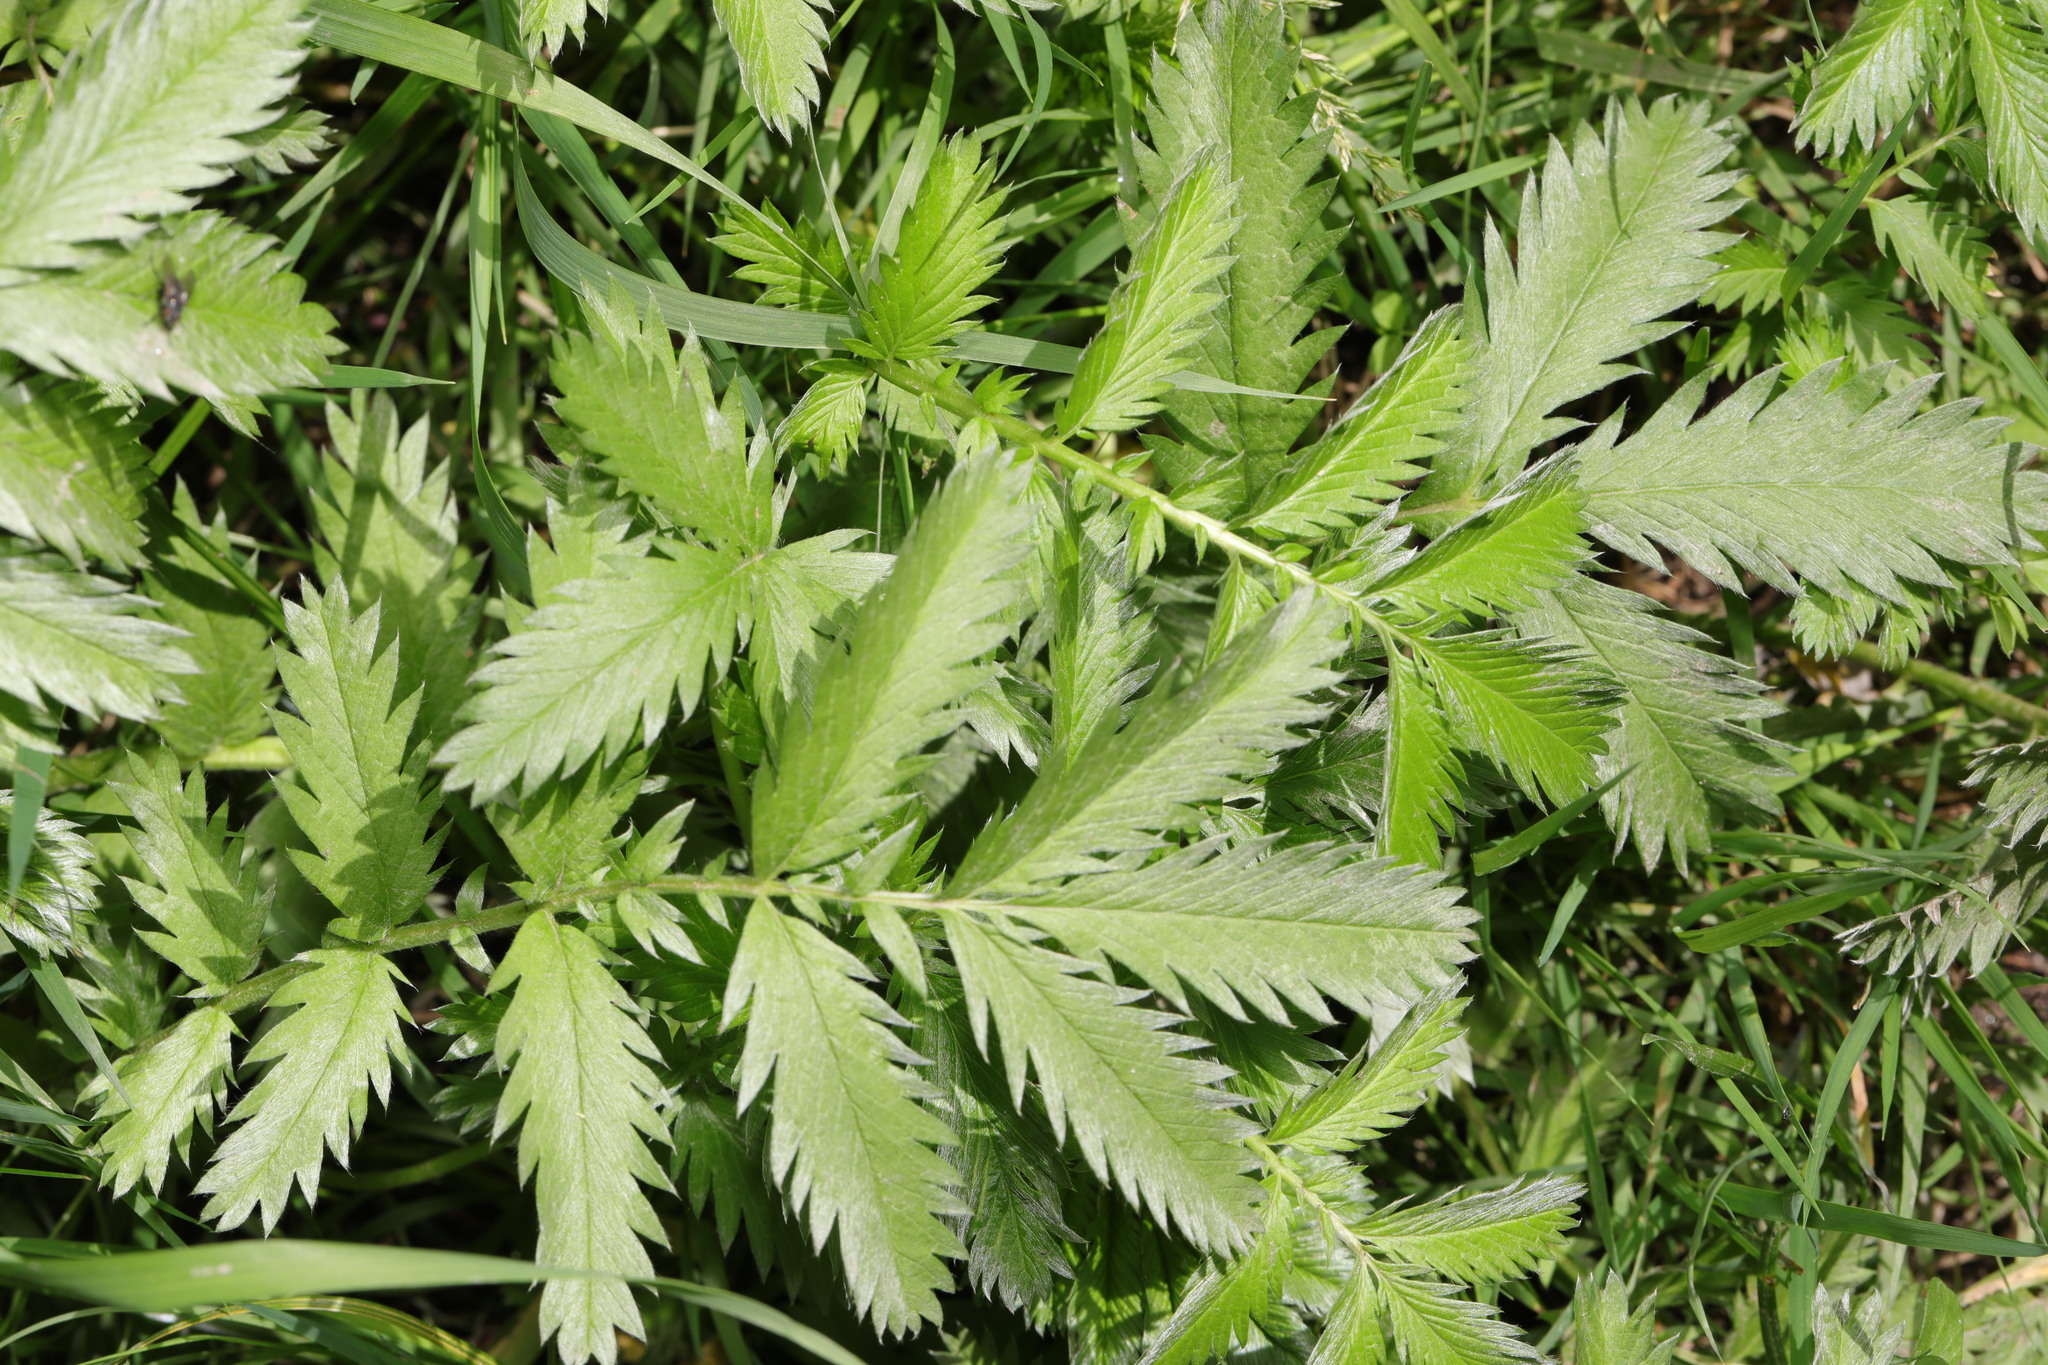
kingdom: Plantae
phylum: Tracheophyta
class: Magnoliopsida
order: Rosales
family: Rosaceae
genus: Argentina
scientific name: Argentina anserina
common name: Common silverweed
